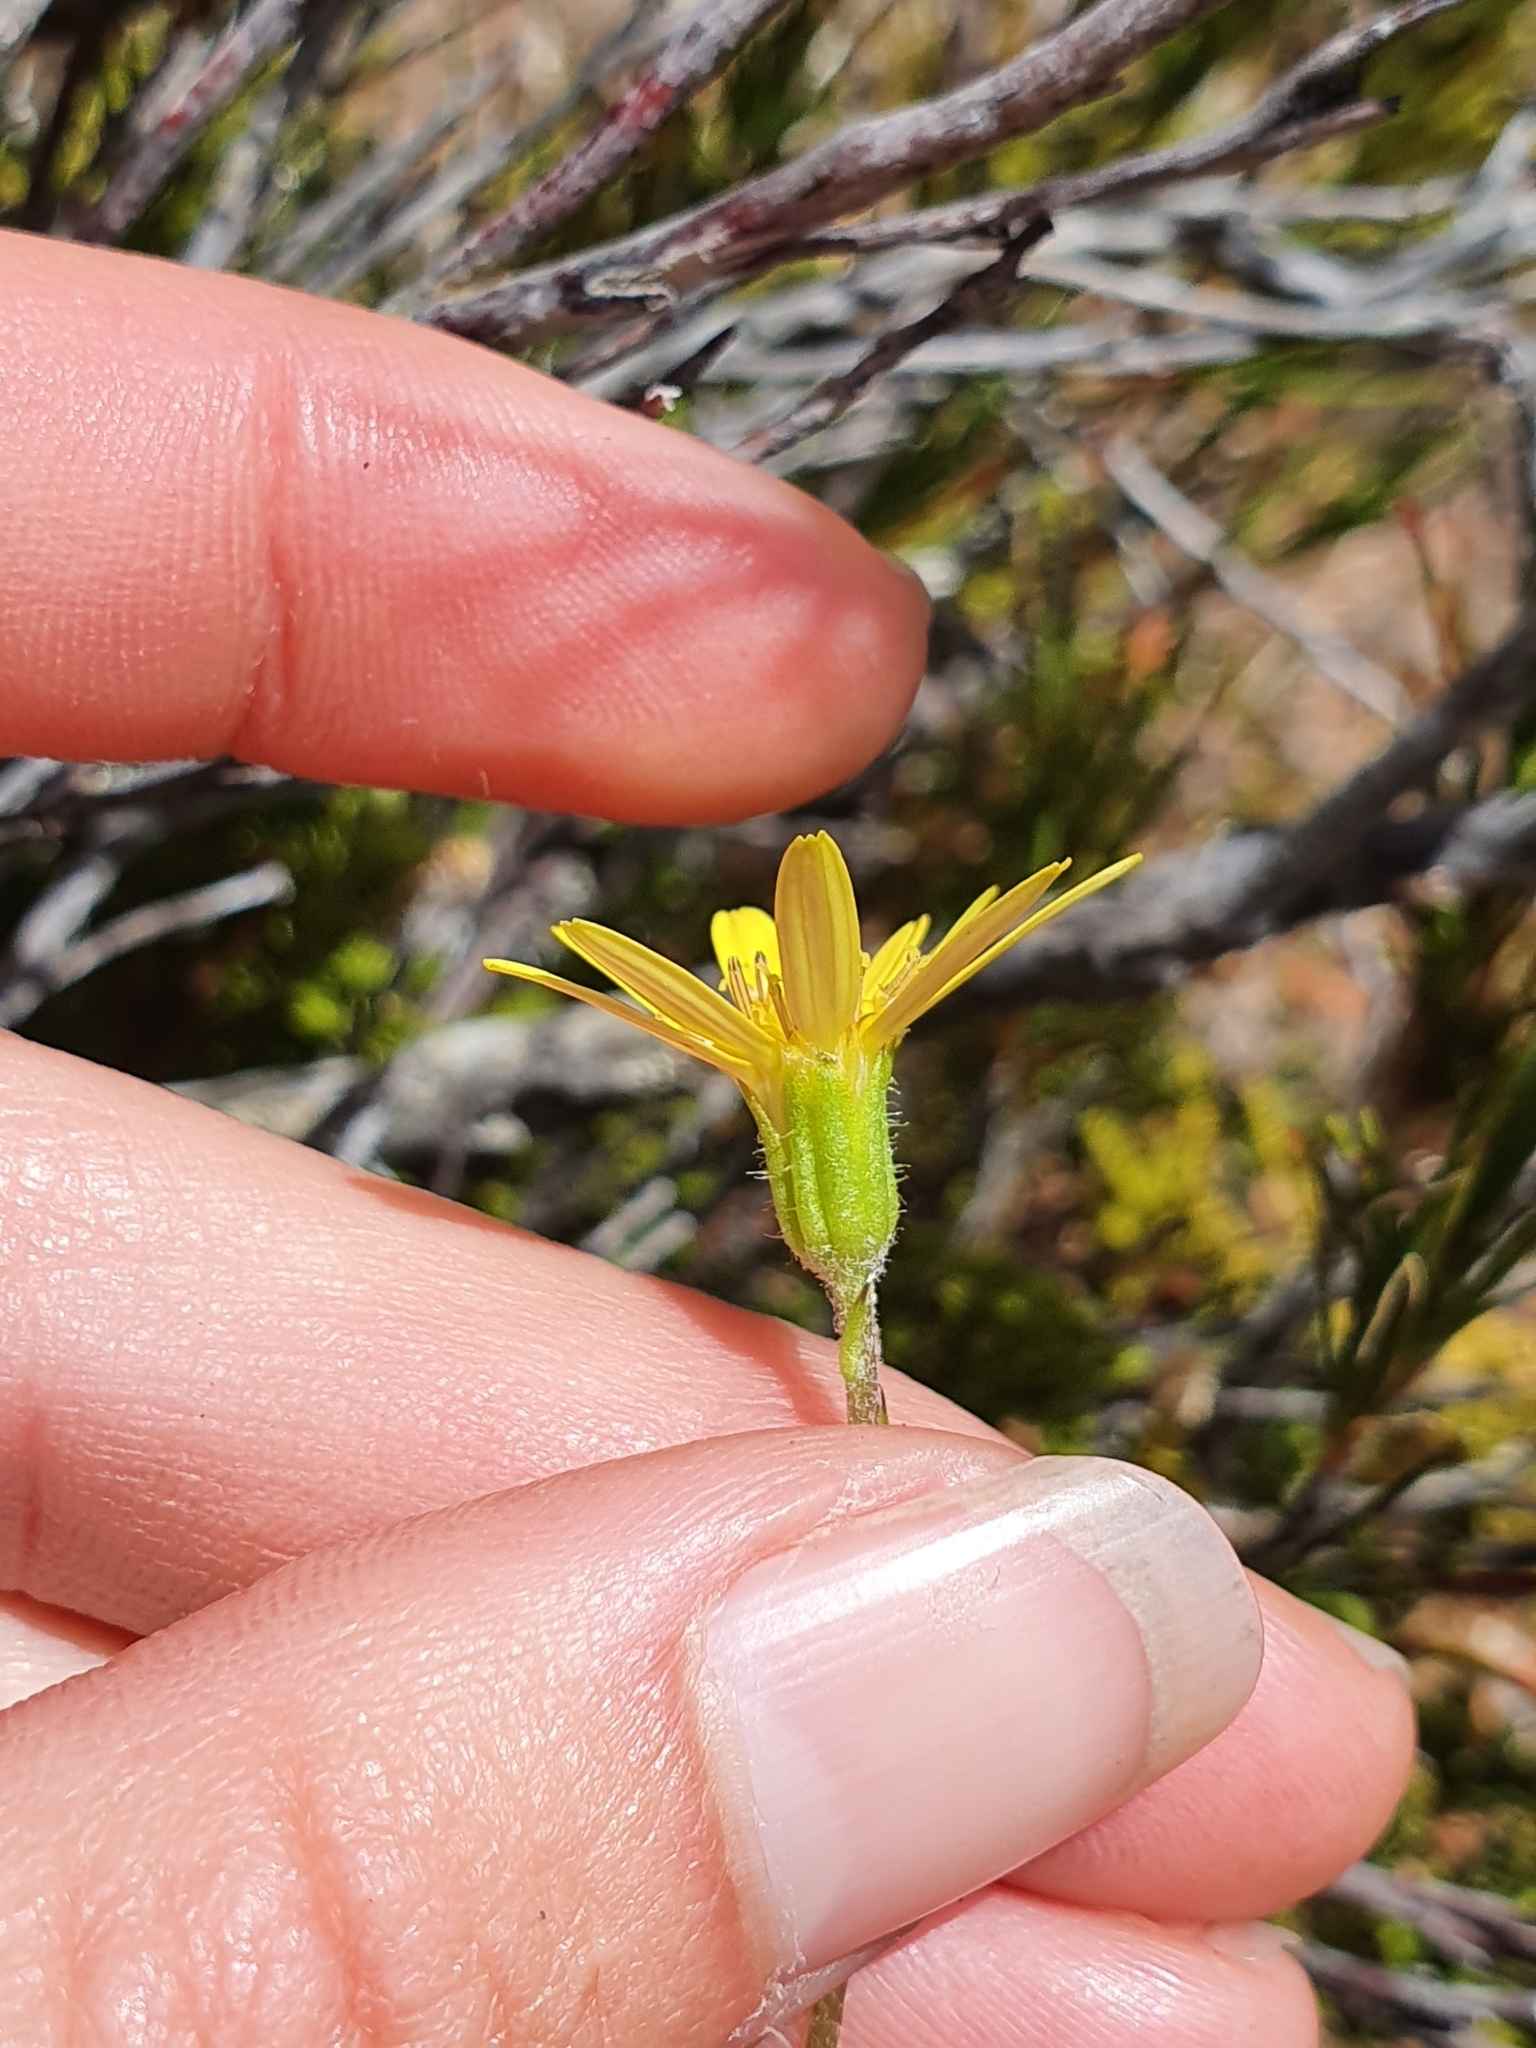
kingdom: Plantae
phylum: Tracheophyta
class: Magnoliopsida
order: Asterales
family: Asteraceae
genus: Brachyglottis
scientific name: Brachyglottis bellidioides
